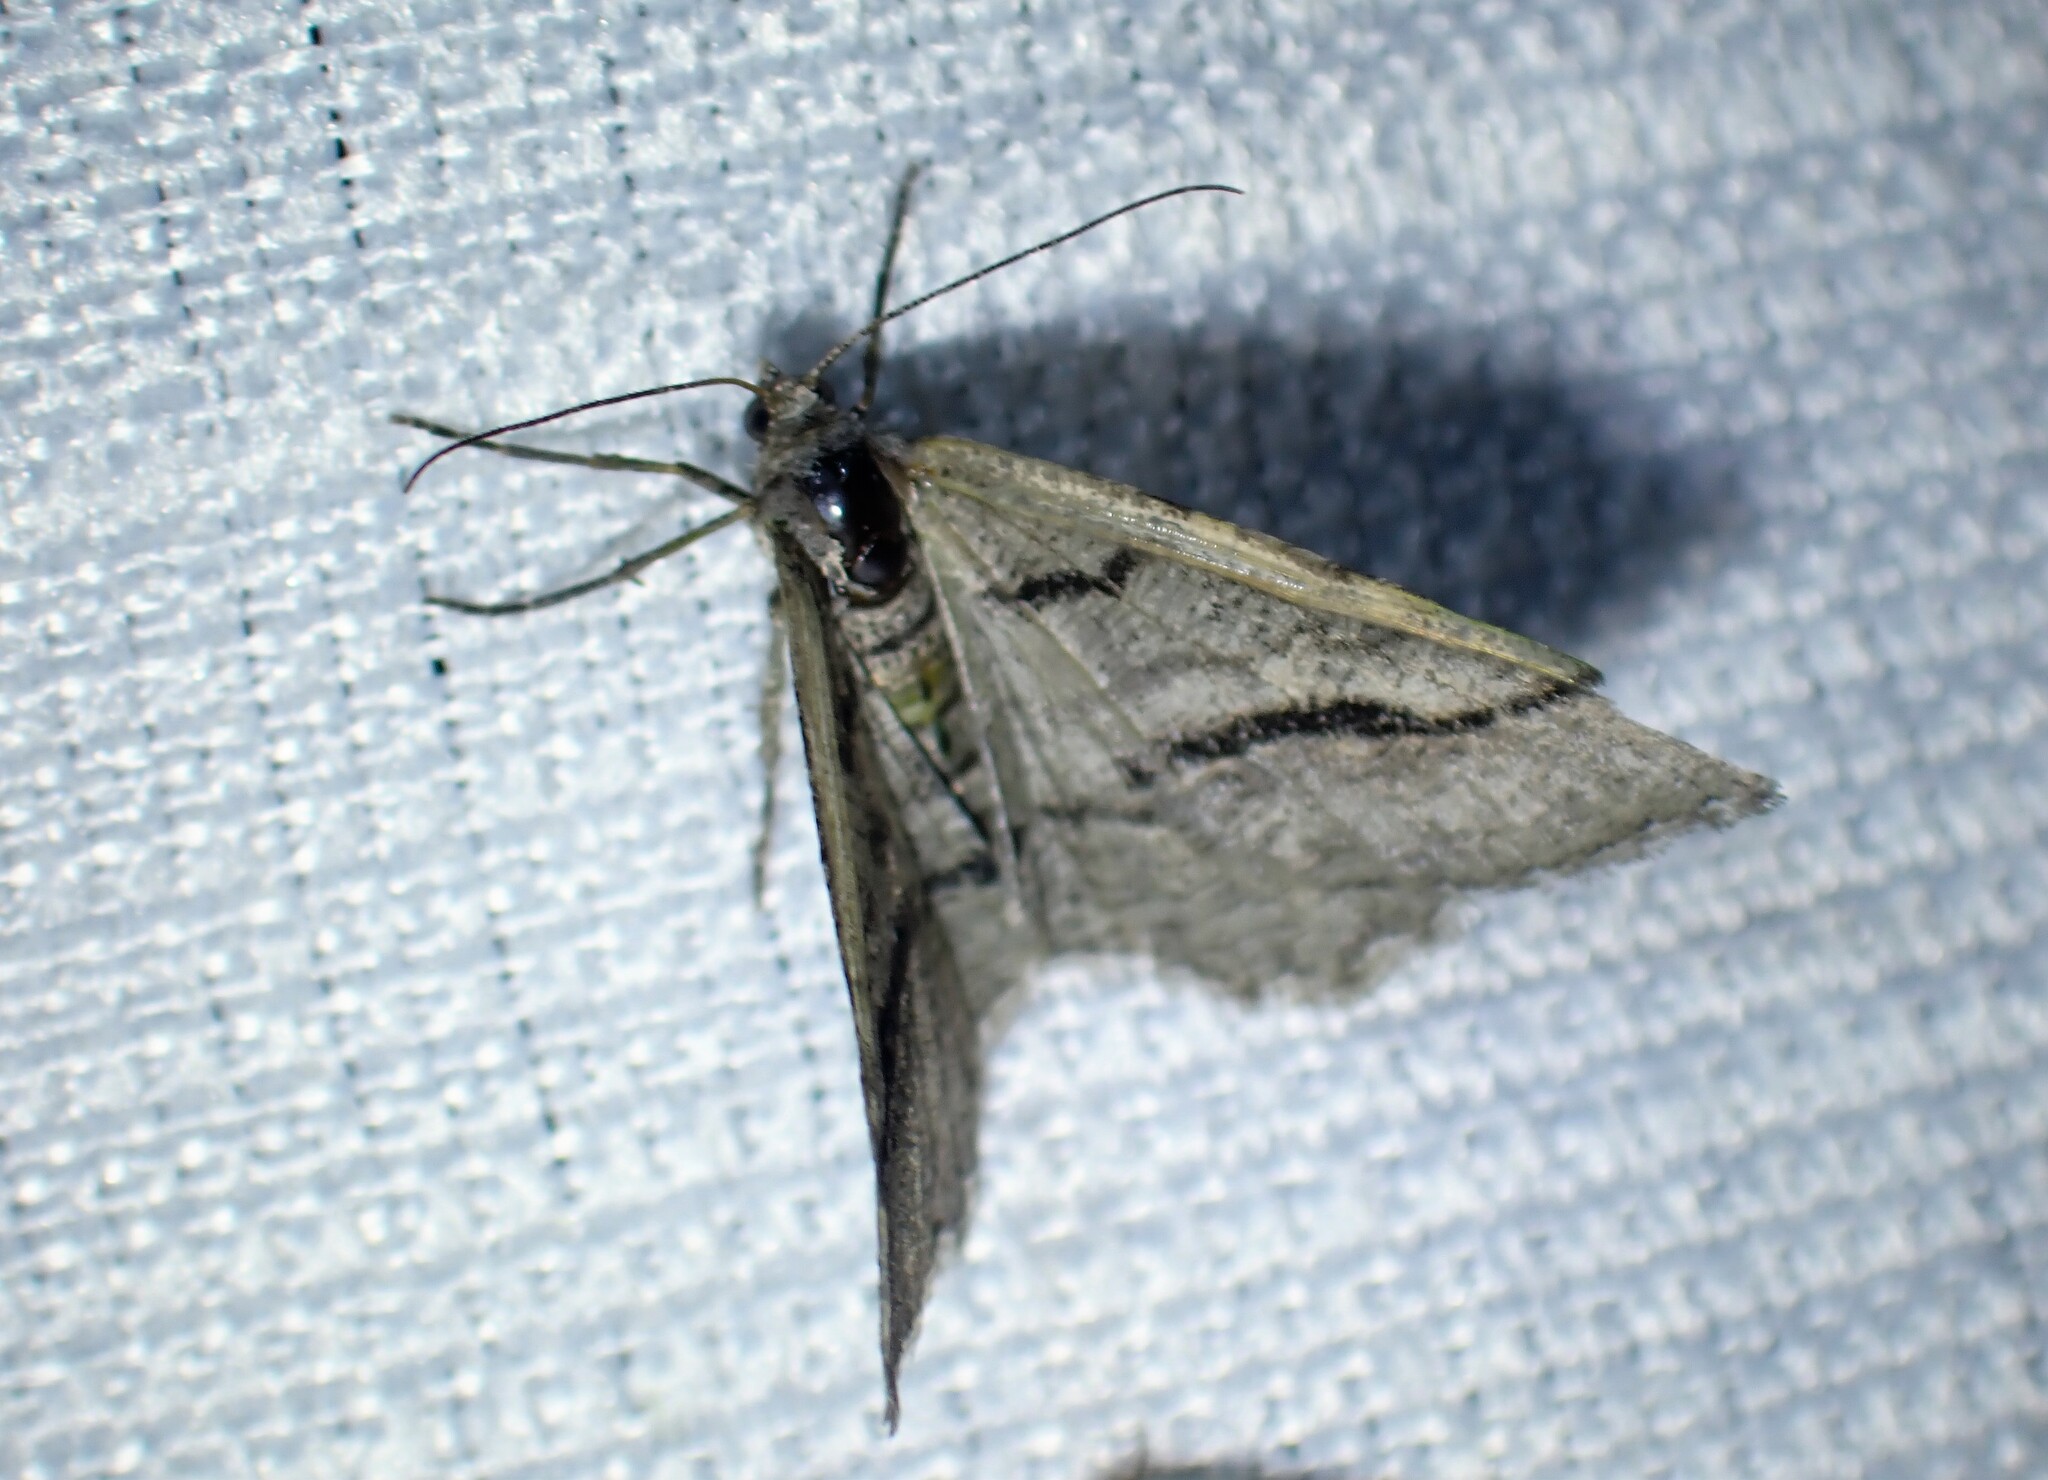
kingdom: Animalia
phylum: Arthropoda
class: Insecta
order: Lepidoptera
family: Geometridae
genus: Digrammia
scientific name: Digrammia continuata
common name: Curve-lined angle
